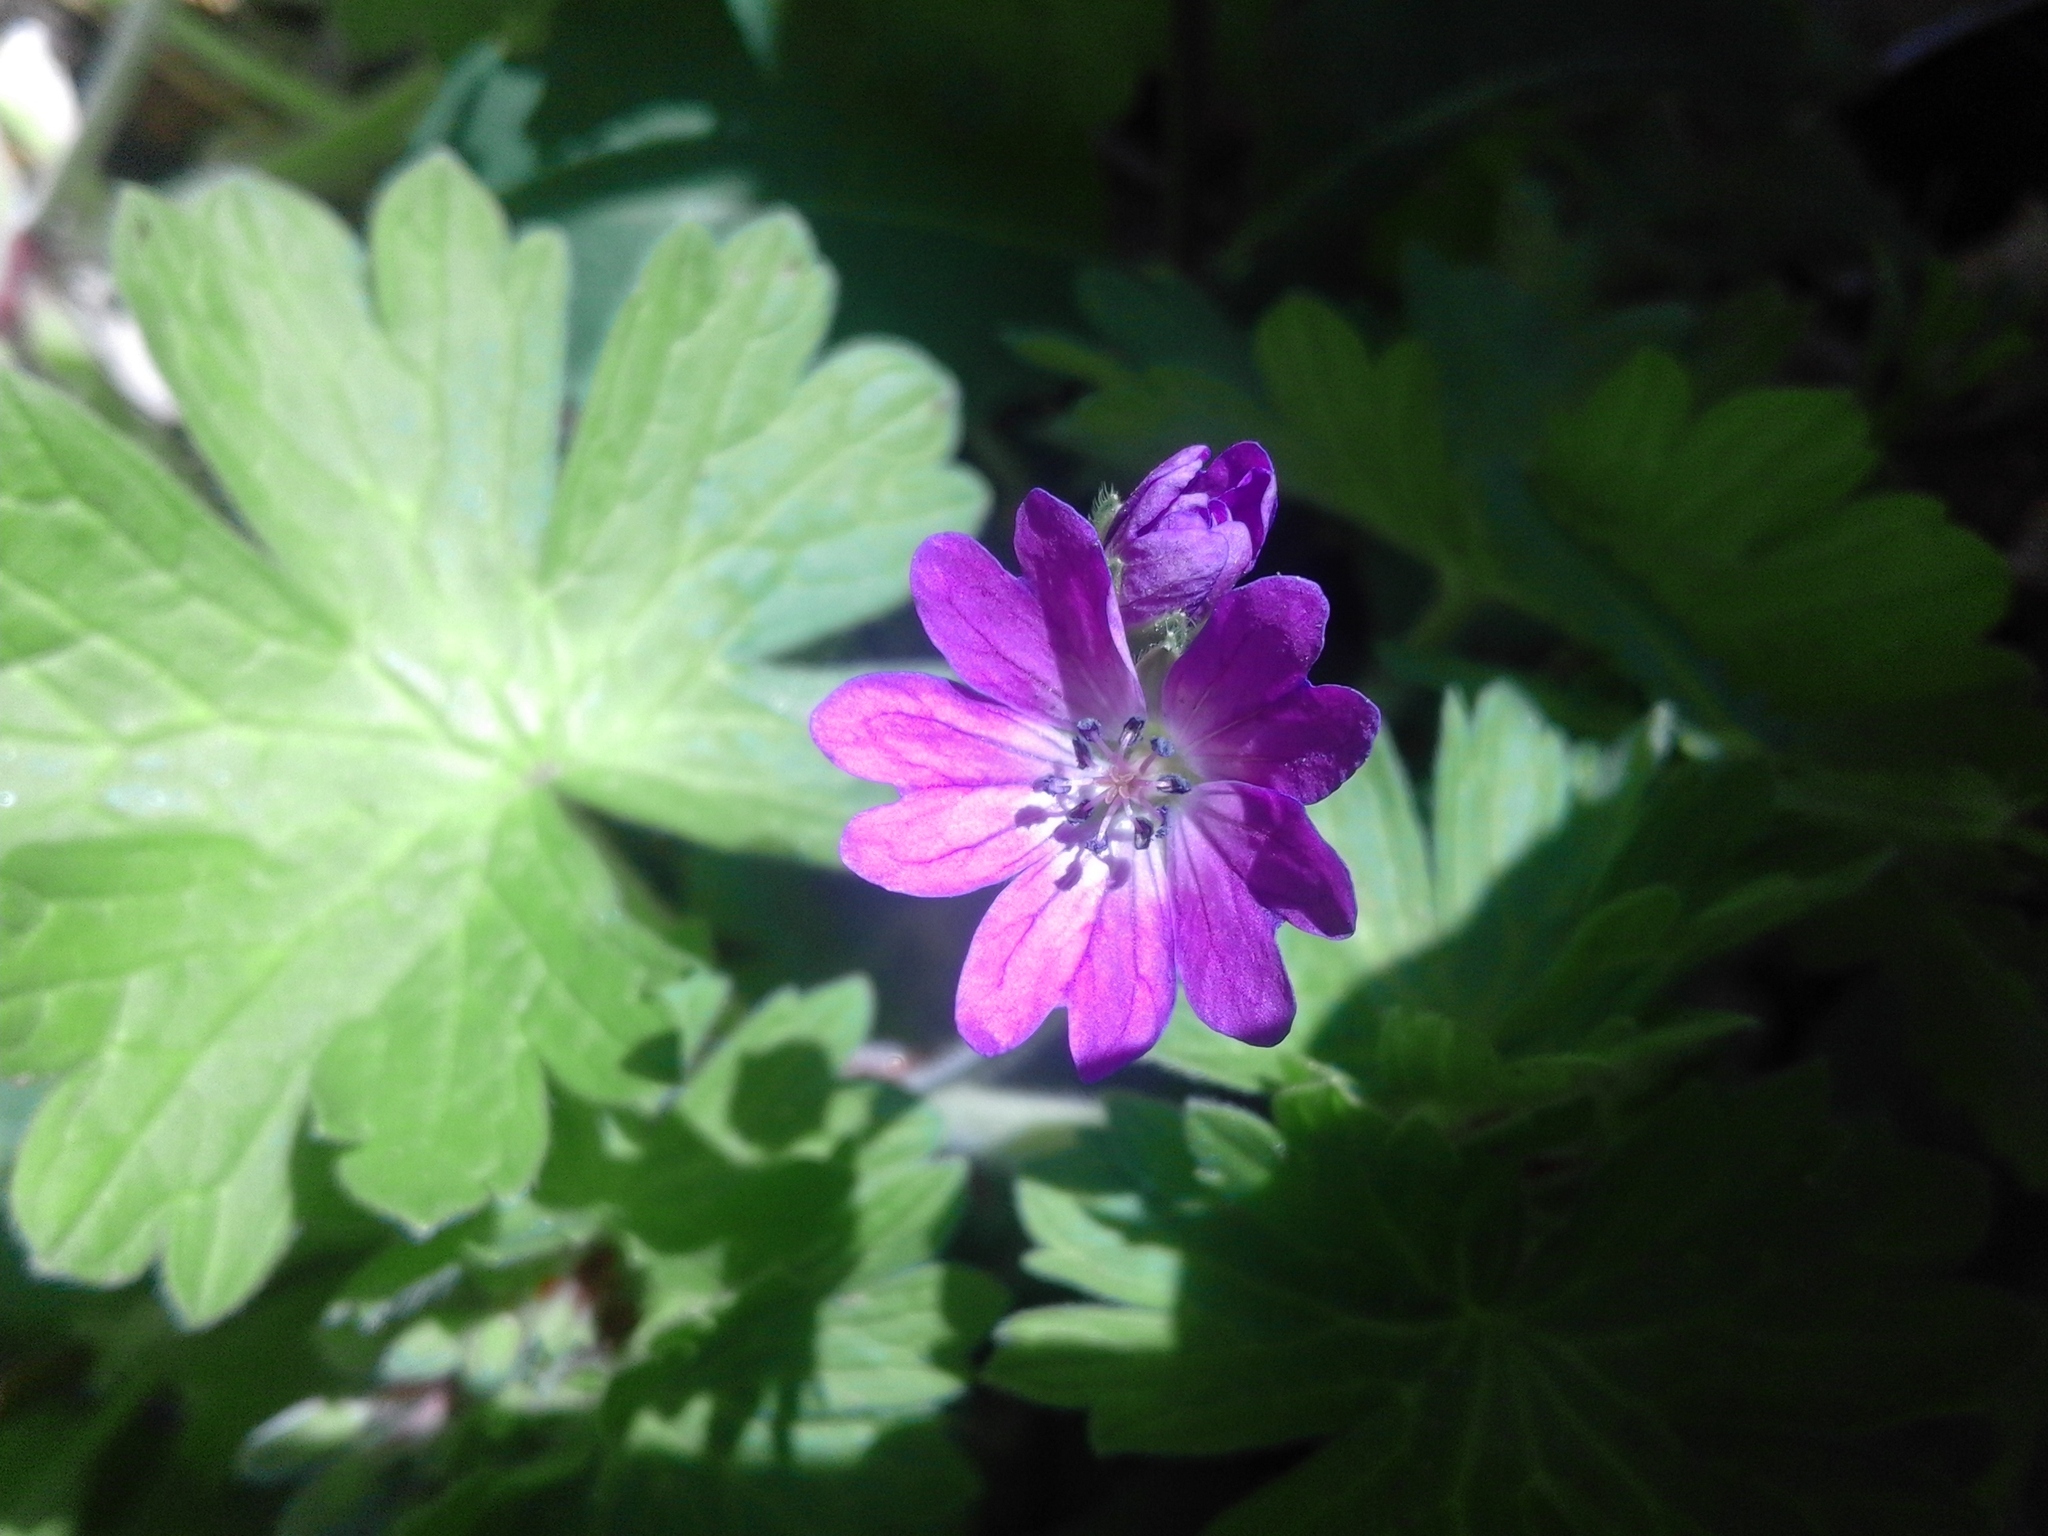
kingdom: Plantae
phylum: Tracheophyta
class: Magnoliopsida
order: Geraniales
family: Geraniaceae
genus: Geranium
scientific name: Geranium pyrenaicum
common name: Hedgerow crane's-bill
